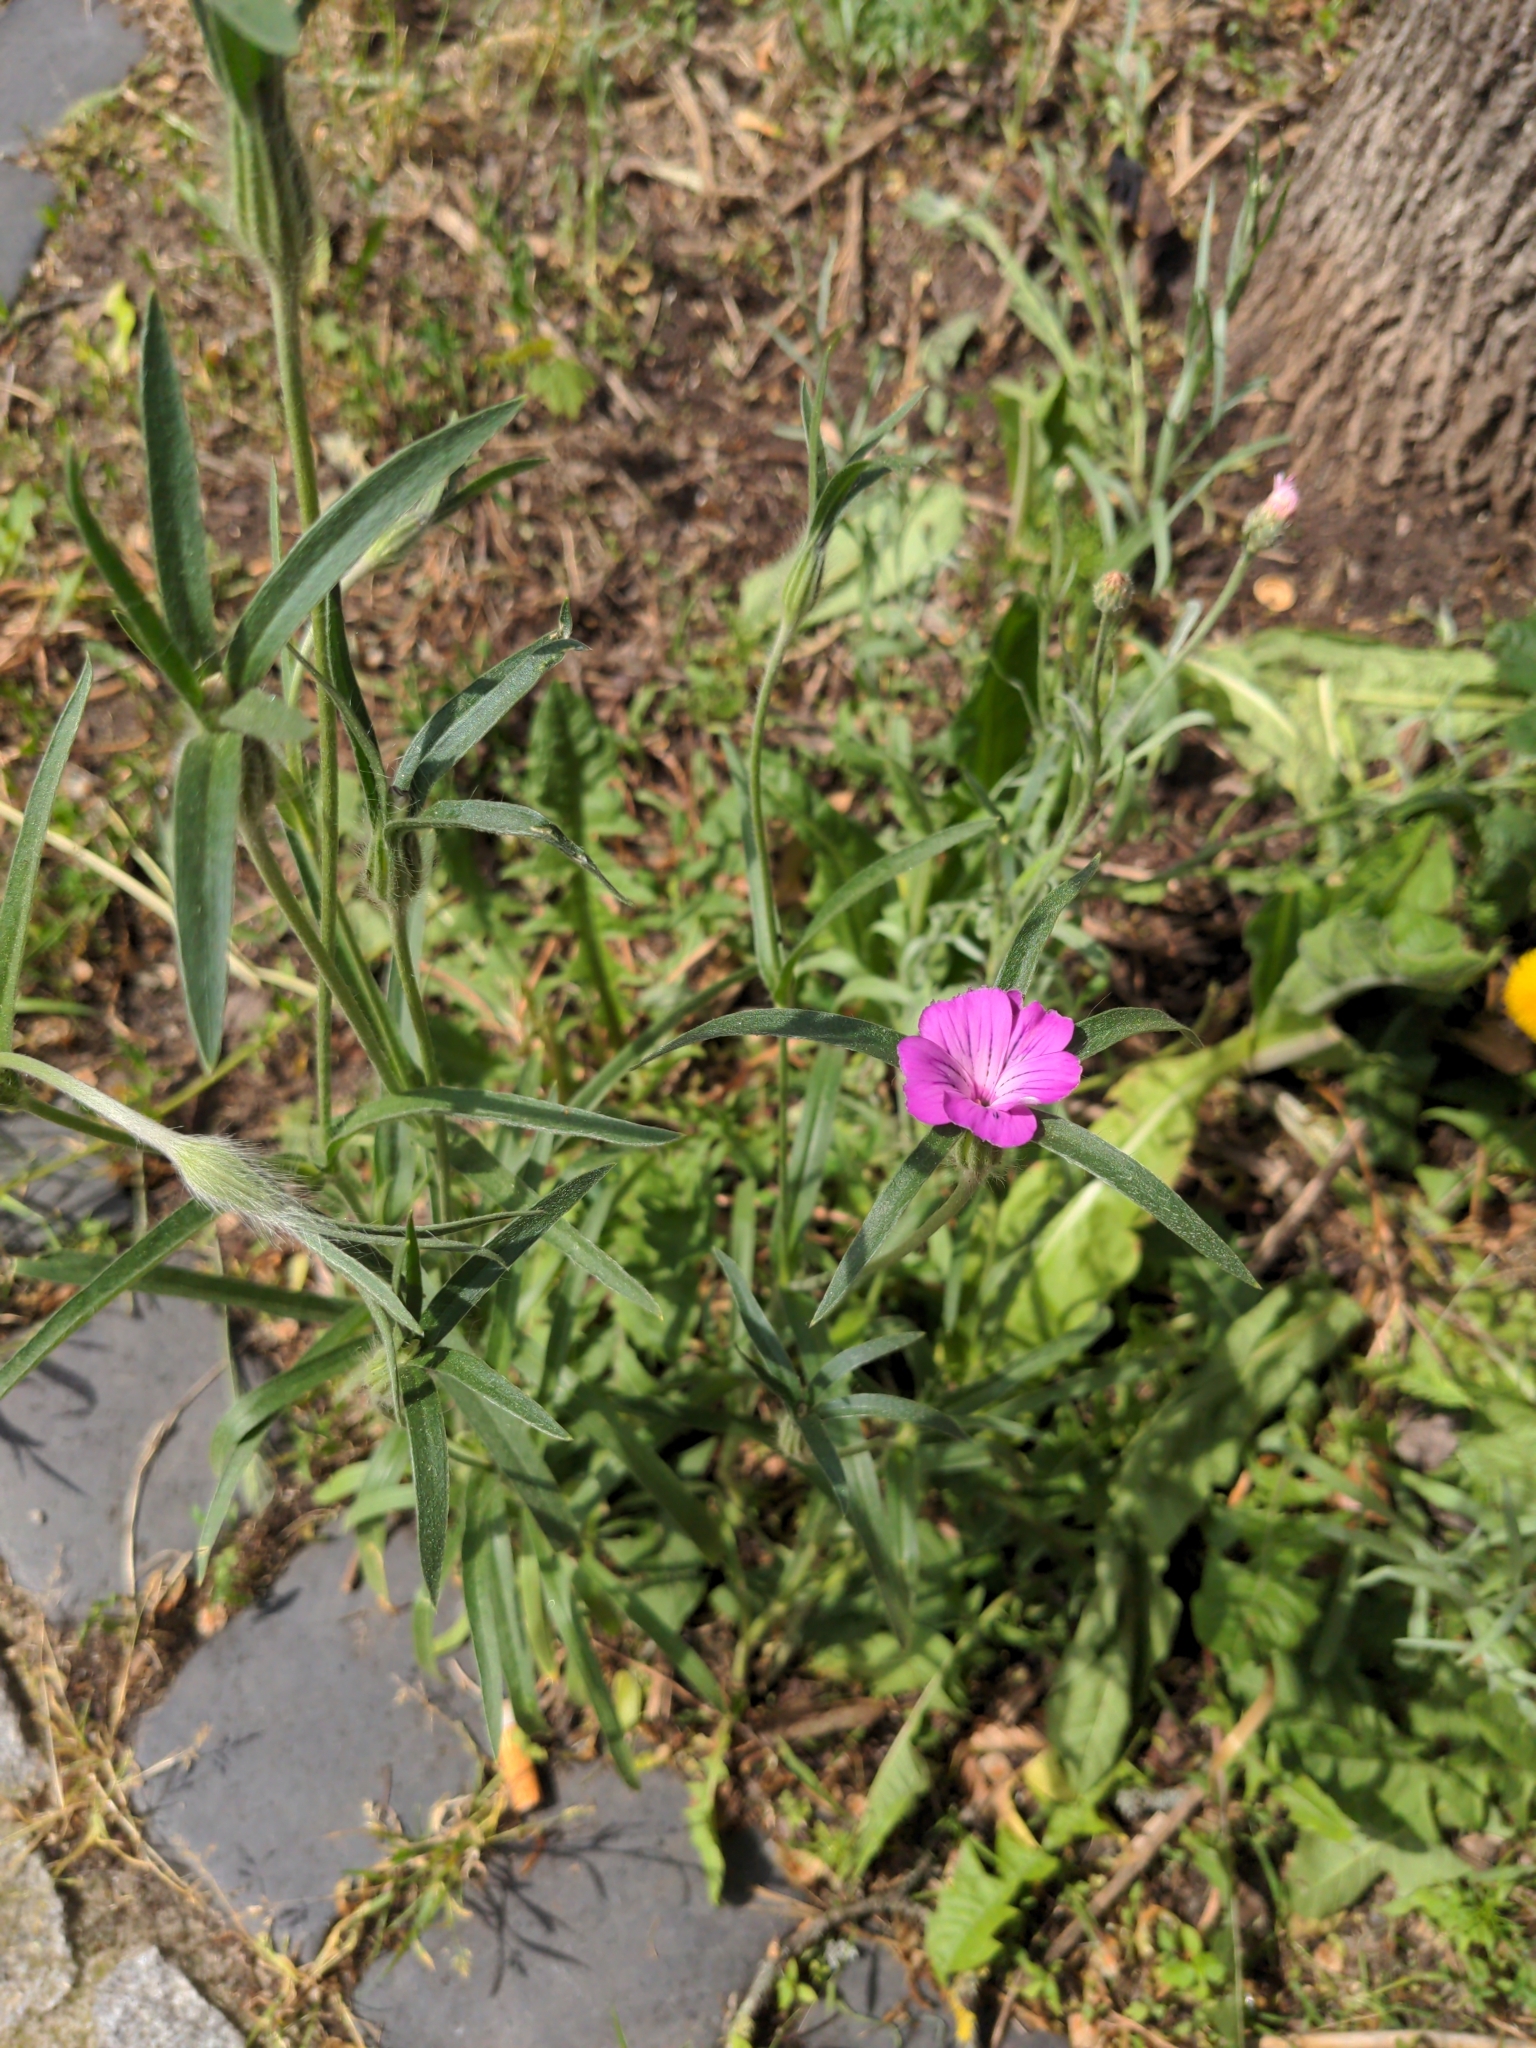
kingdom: Plantae
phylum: Tracheophyta
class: Magnoliopsida
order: Caryophyllales
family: Caryophyllaceae
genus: Agrostemma
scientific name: Agrostemma githago
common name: Common corncockle
